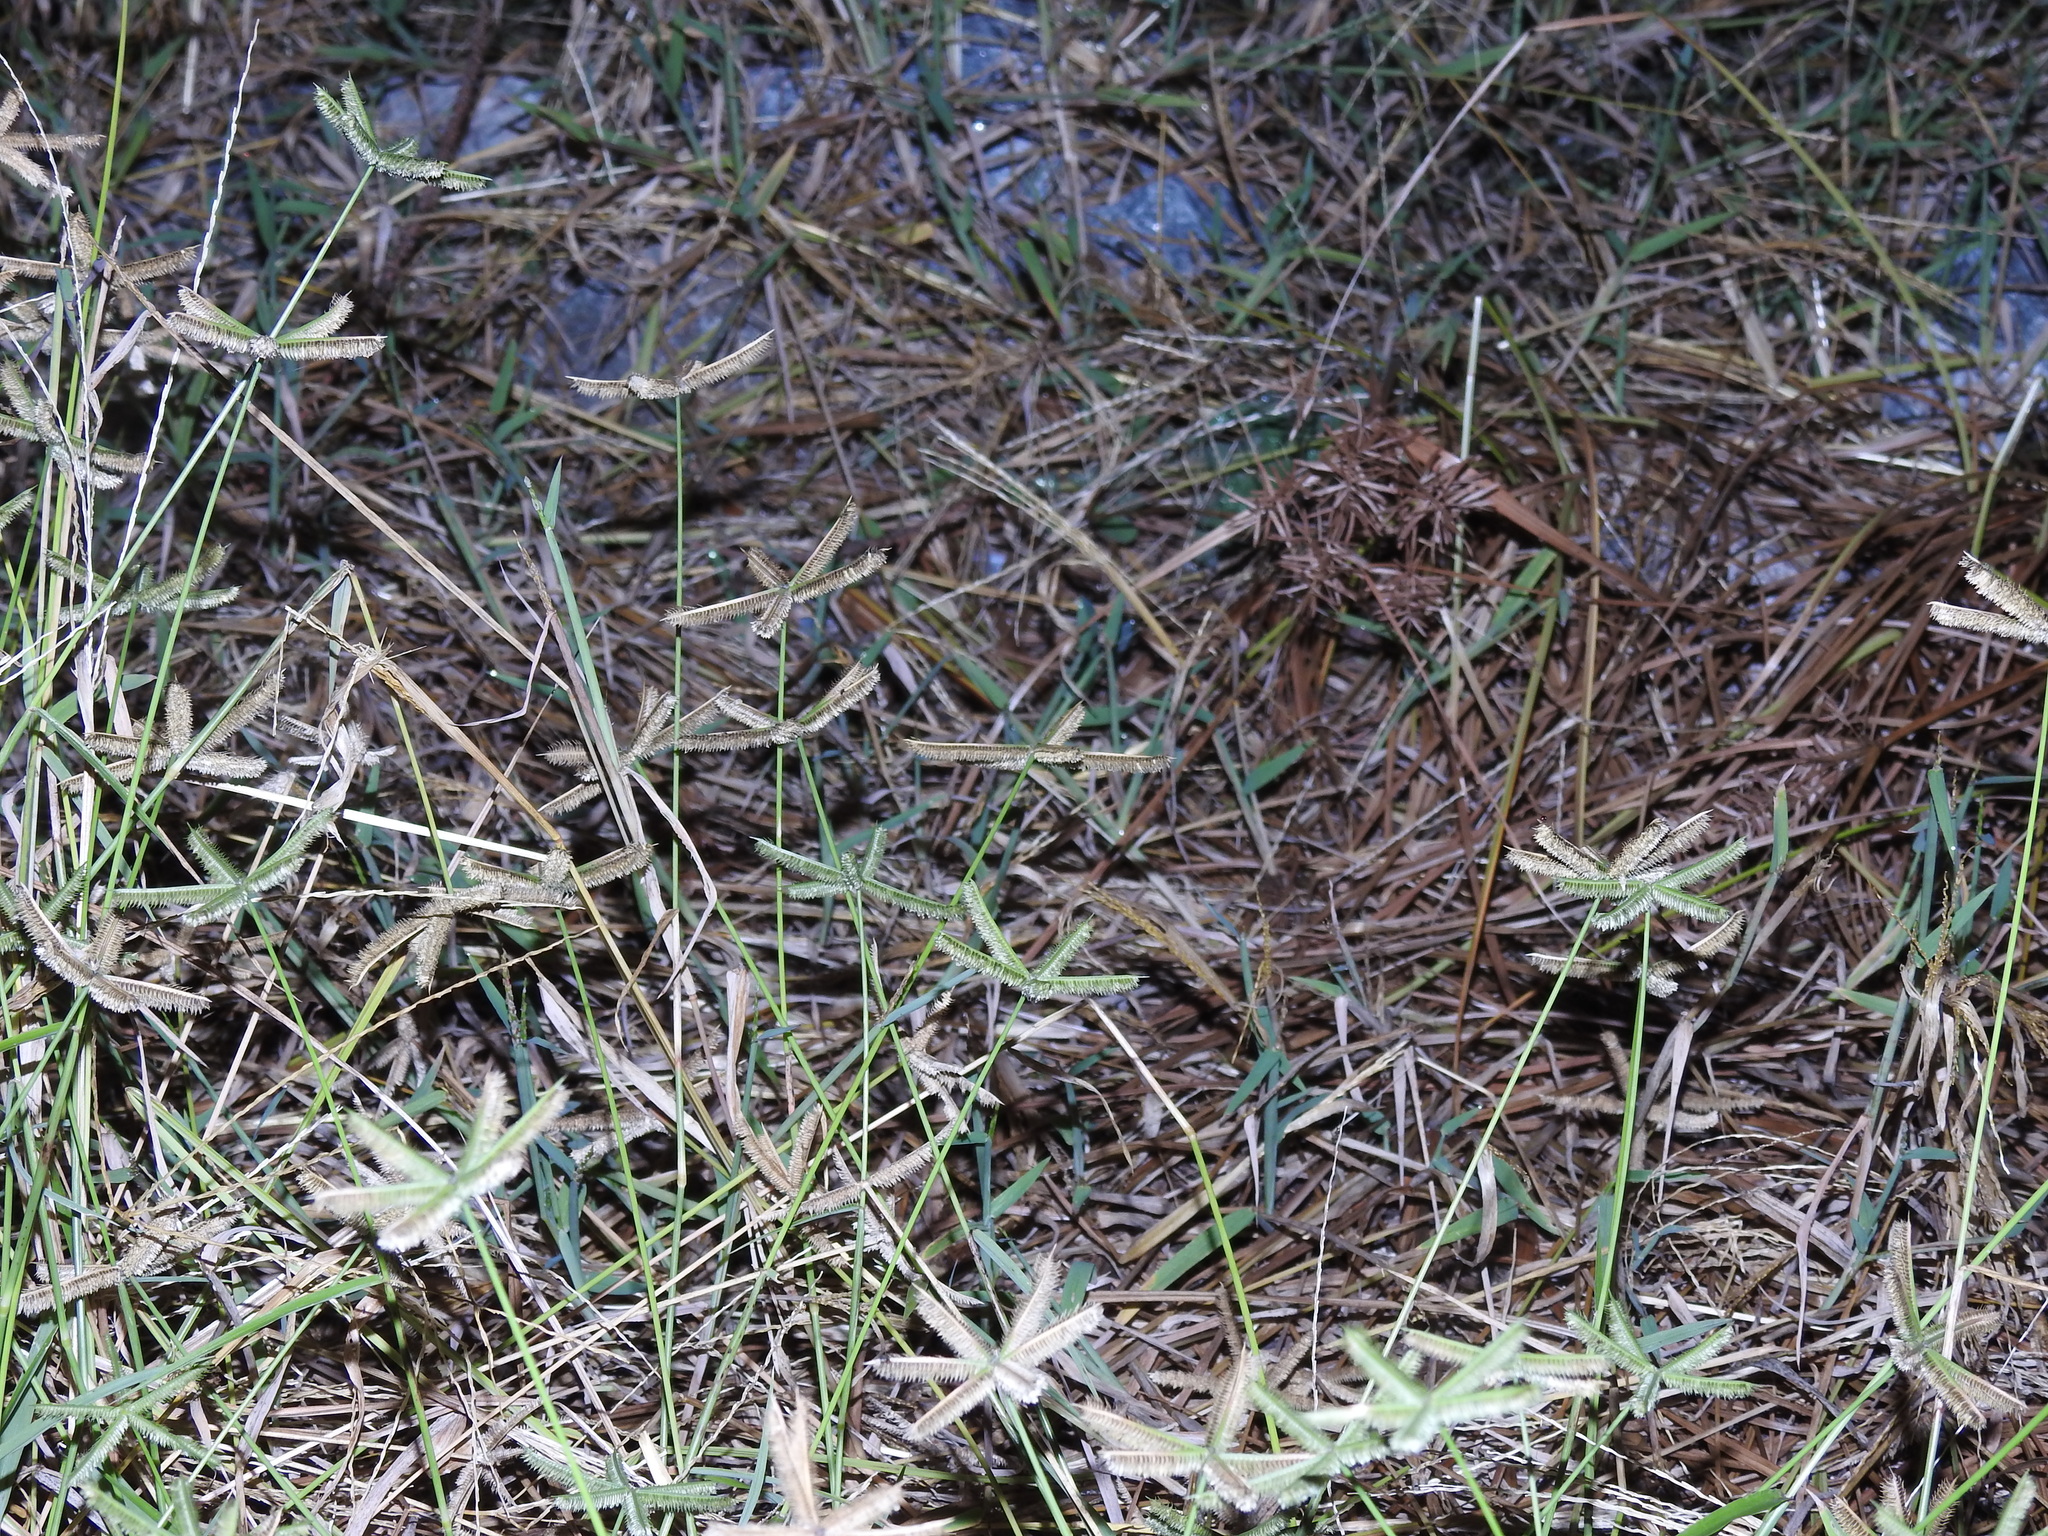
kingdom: Plantae
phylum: Tracheophyta
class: Liliopsida
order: Poales
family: Poaceae
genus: Dactyloctenium
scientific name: Dactyloctenium aegyptium
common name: Egyptian grass
